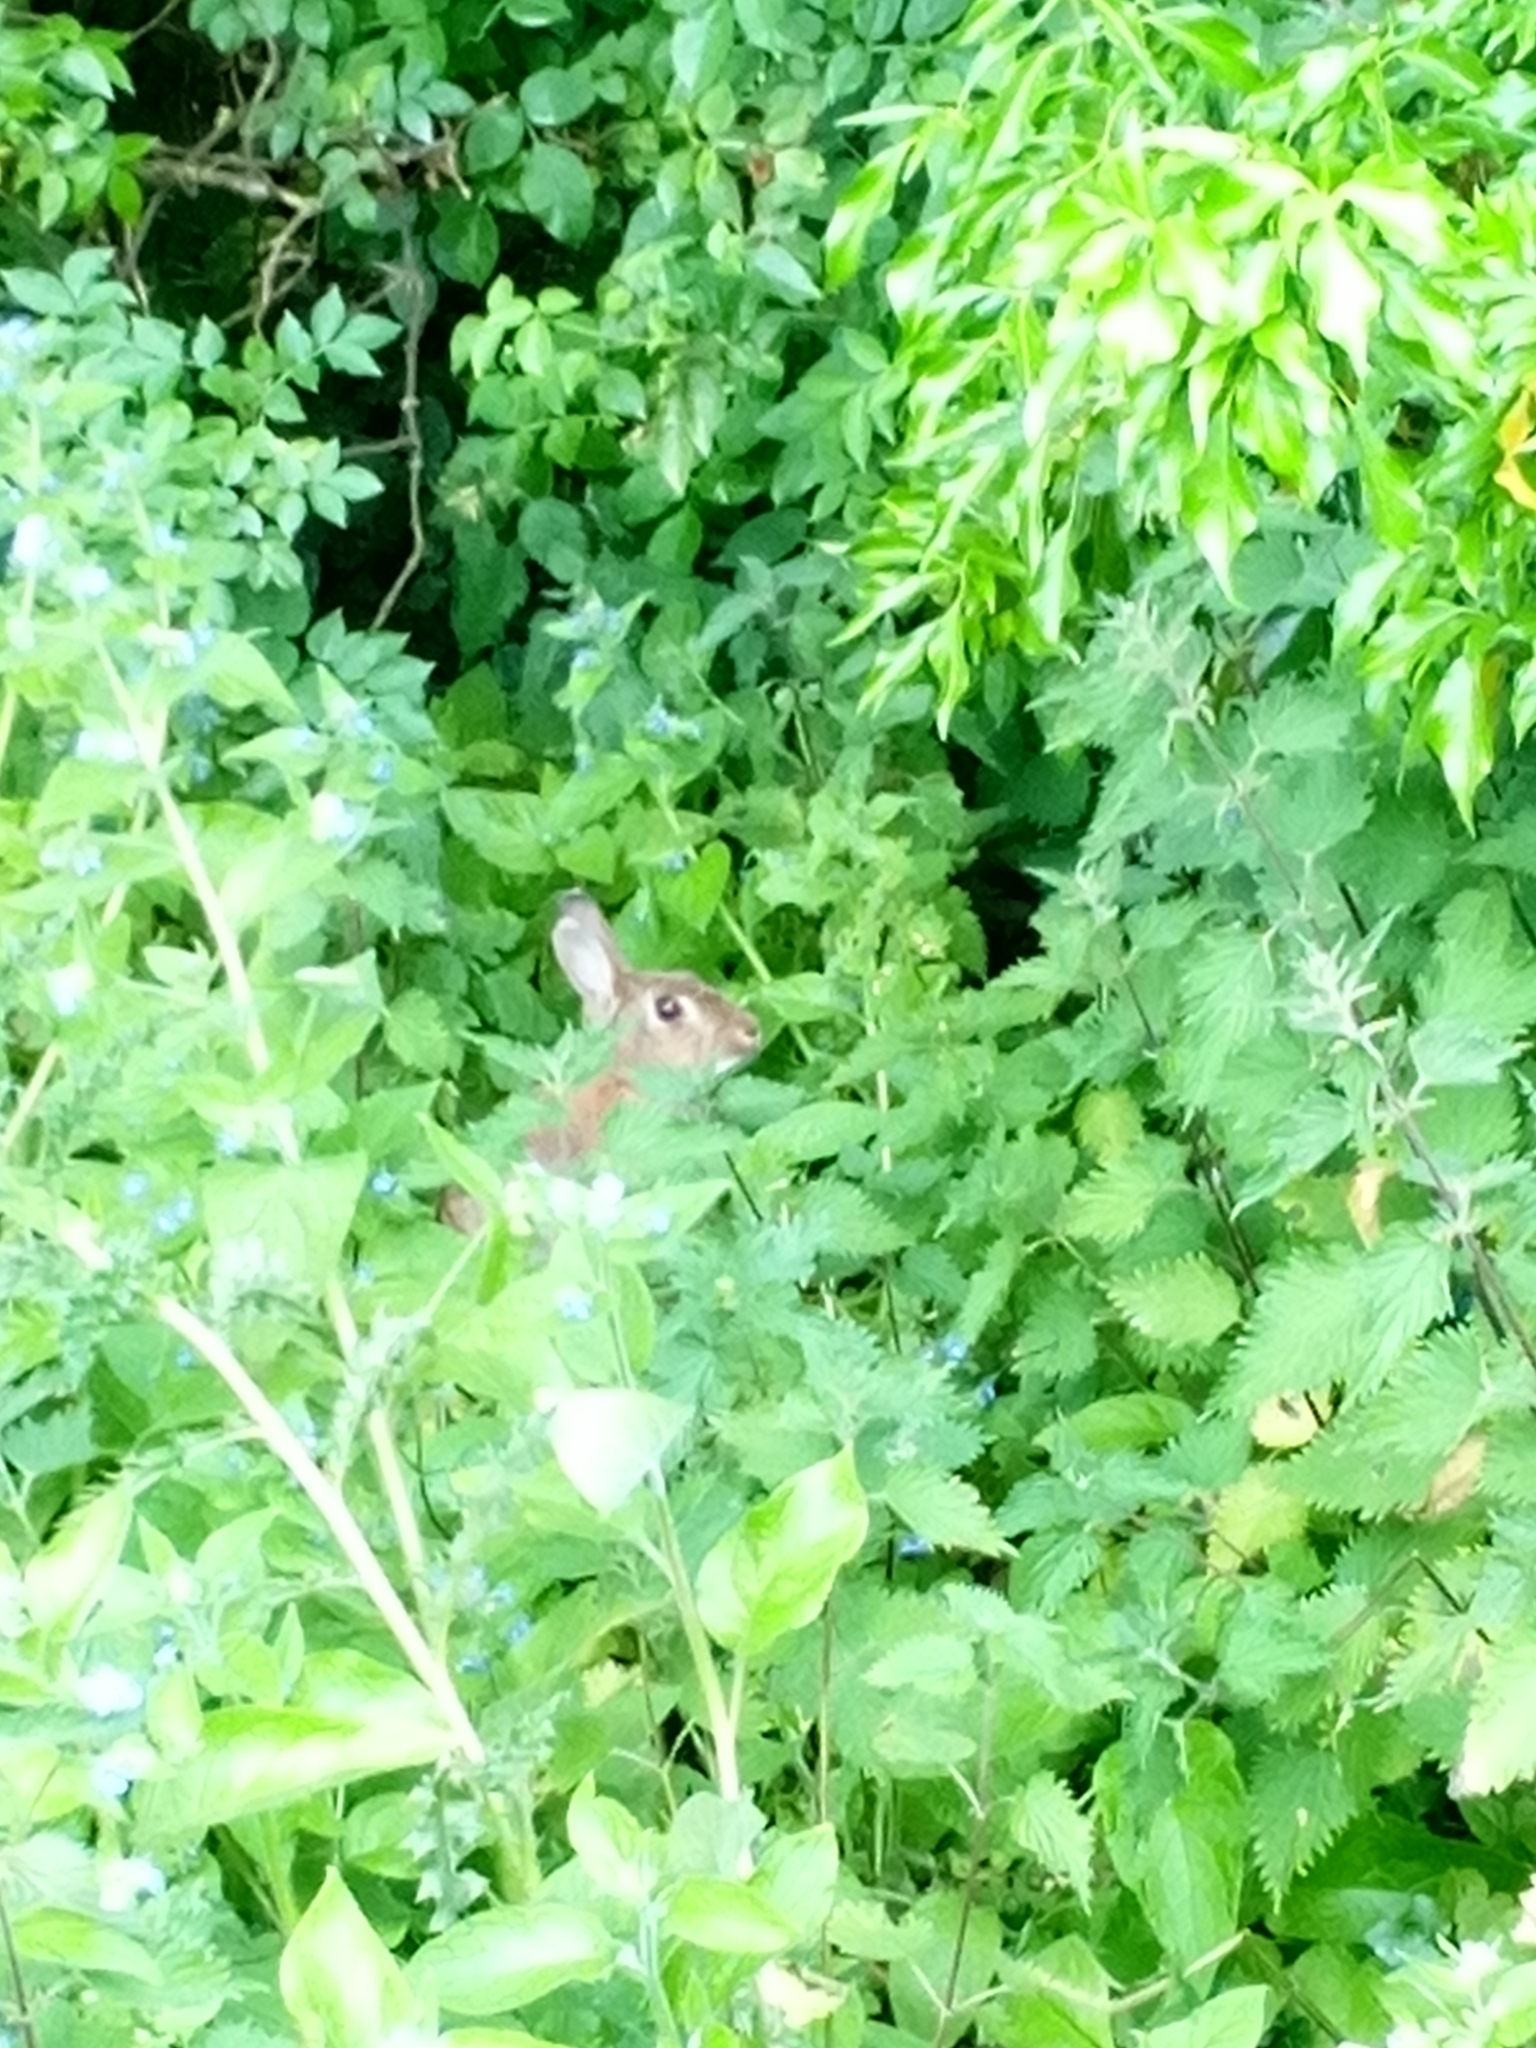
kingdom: Animalia
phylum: Chordata
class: Mammalia
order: Lagomorpha
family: Leporidae
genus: Oryctolagus
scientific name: Oryctolagus cuniculus
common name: European rabbit
